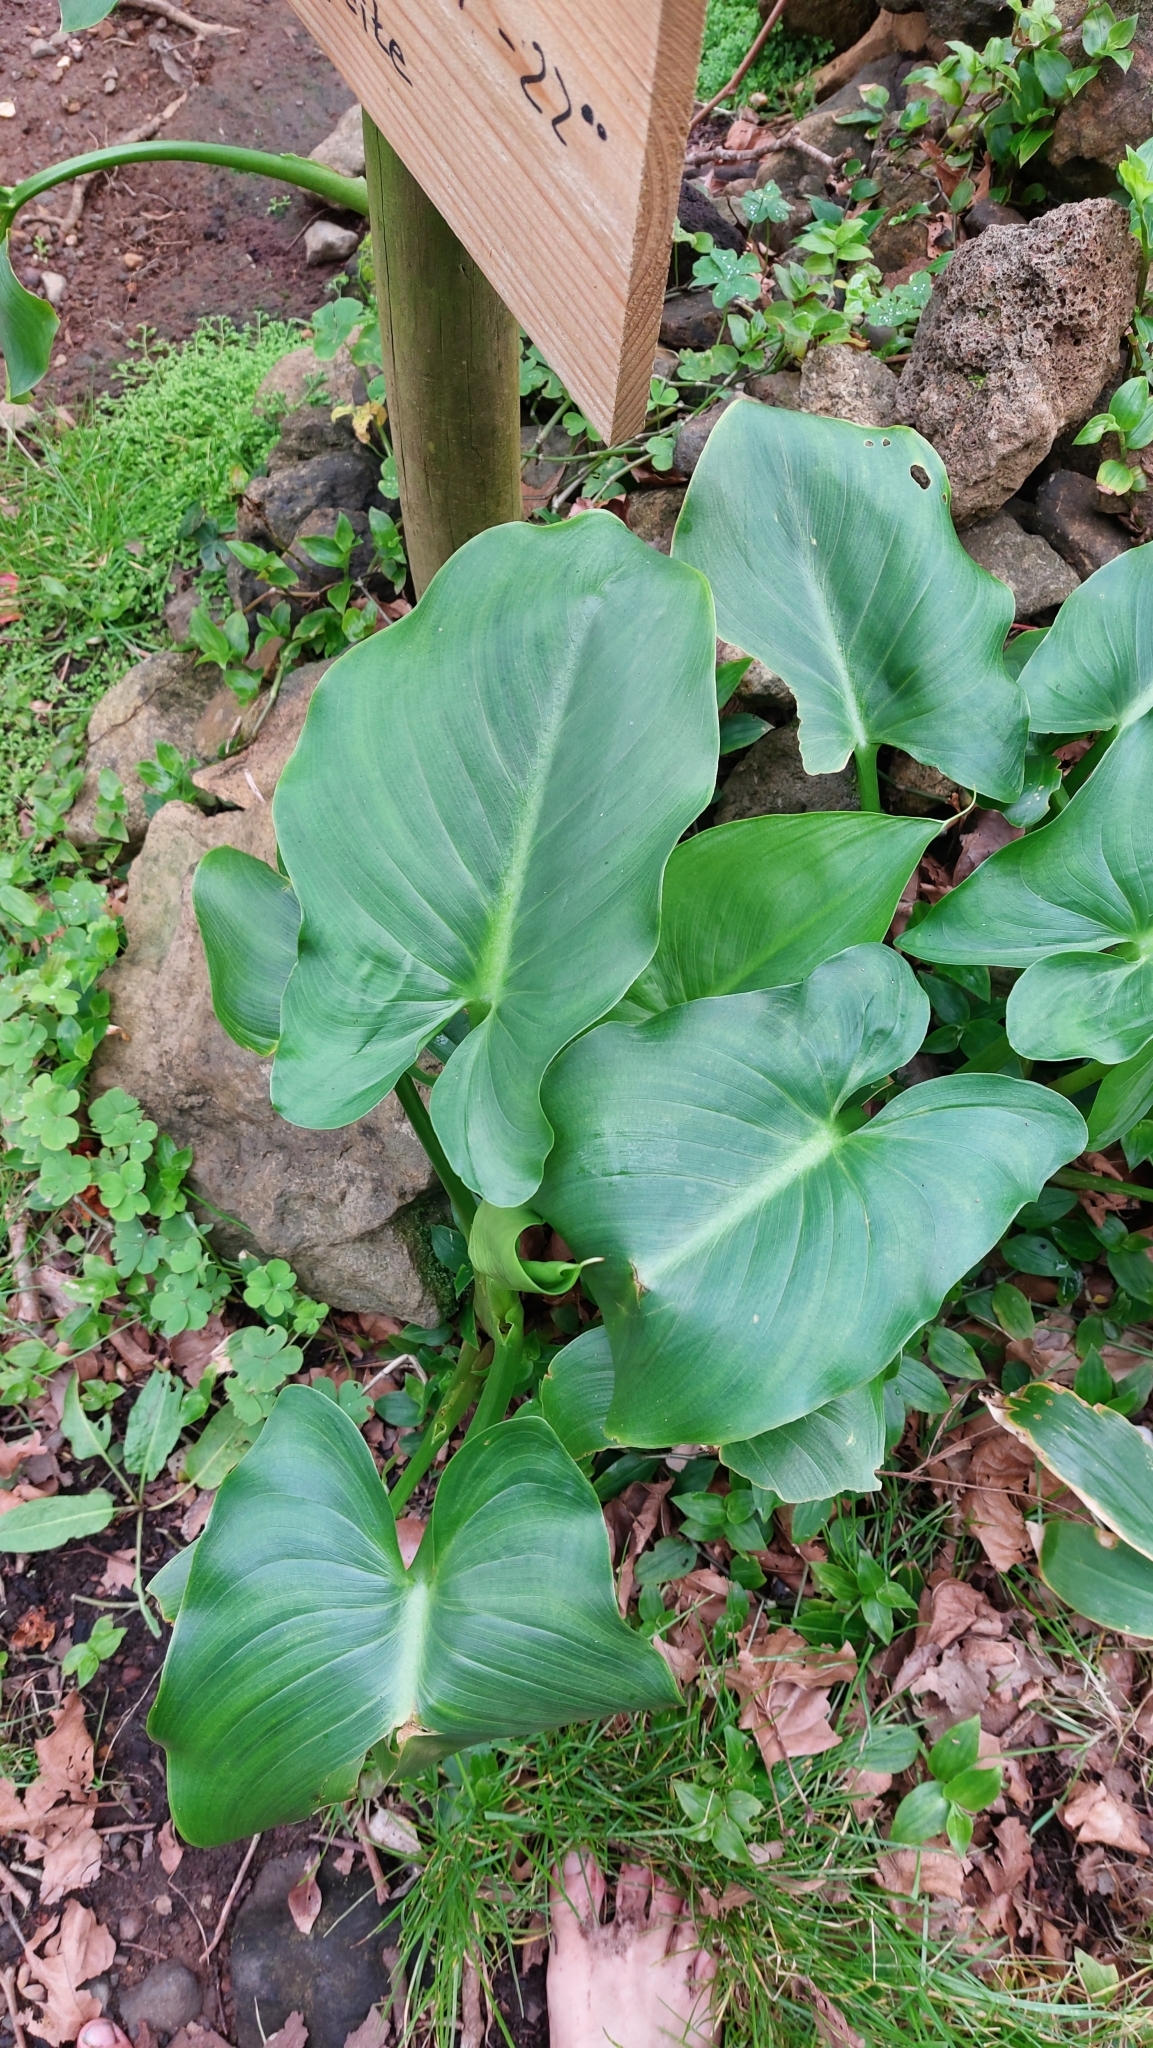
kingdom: Plantae
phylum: Tracheophyta
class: Liliopsida
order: Alismatales
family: Araceae
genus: Zantedeschia
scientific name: Zantedeschia aethiopica
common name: Altar-lily
